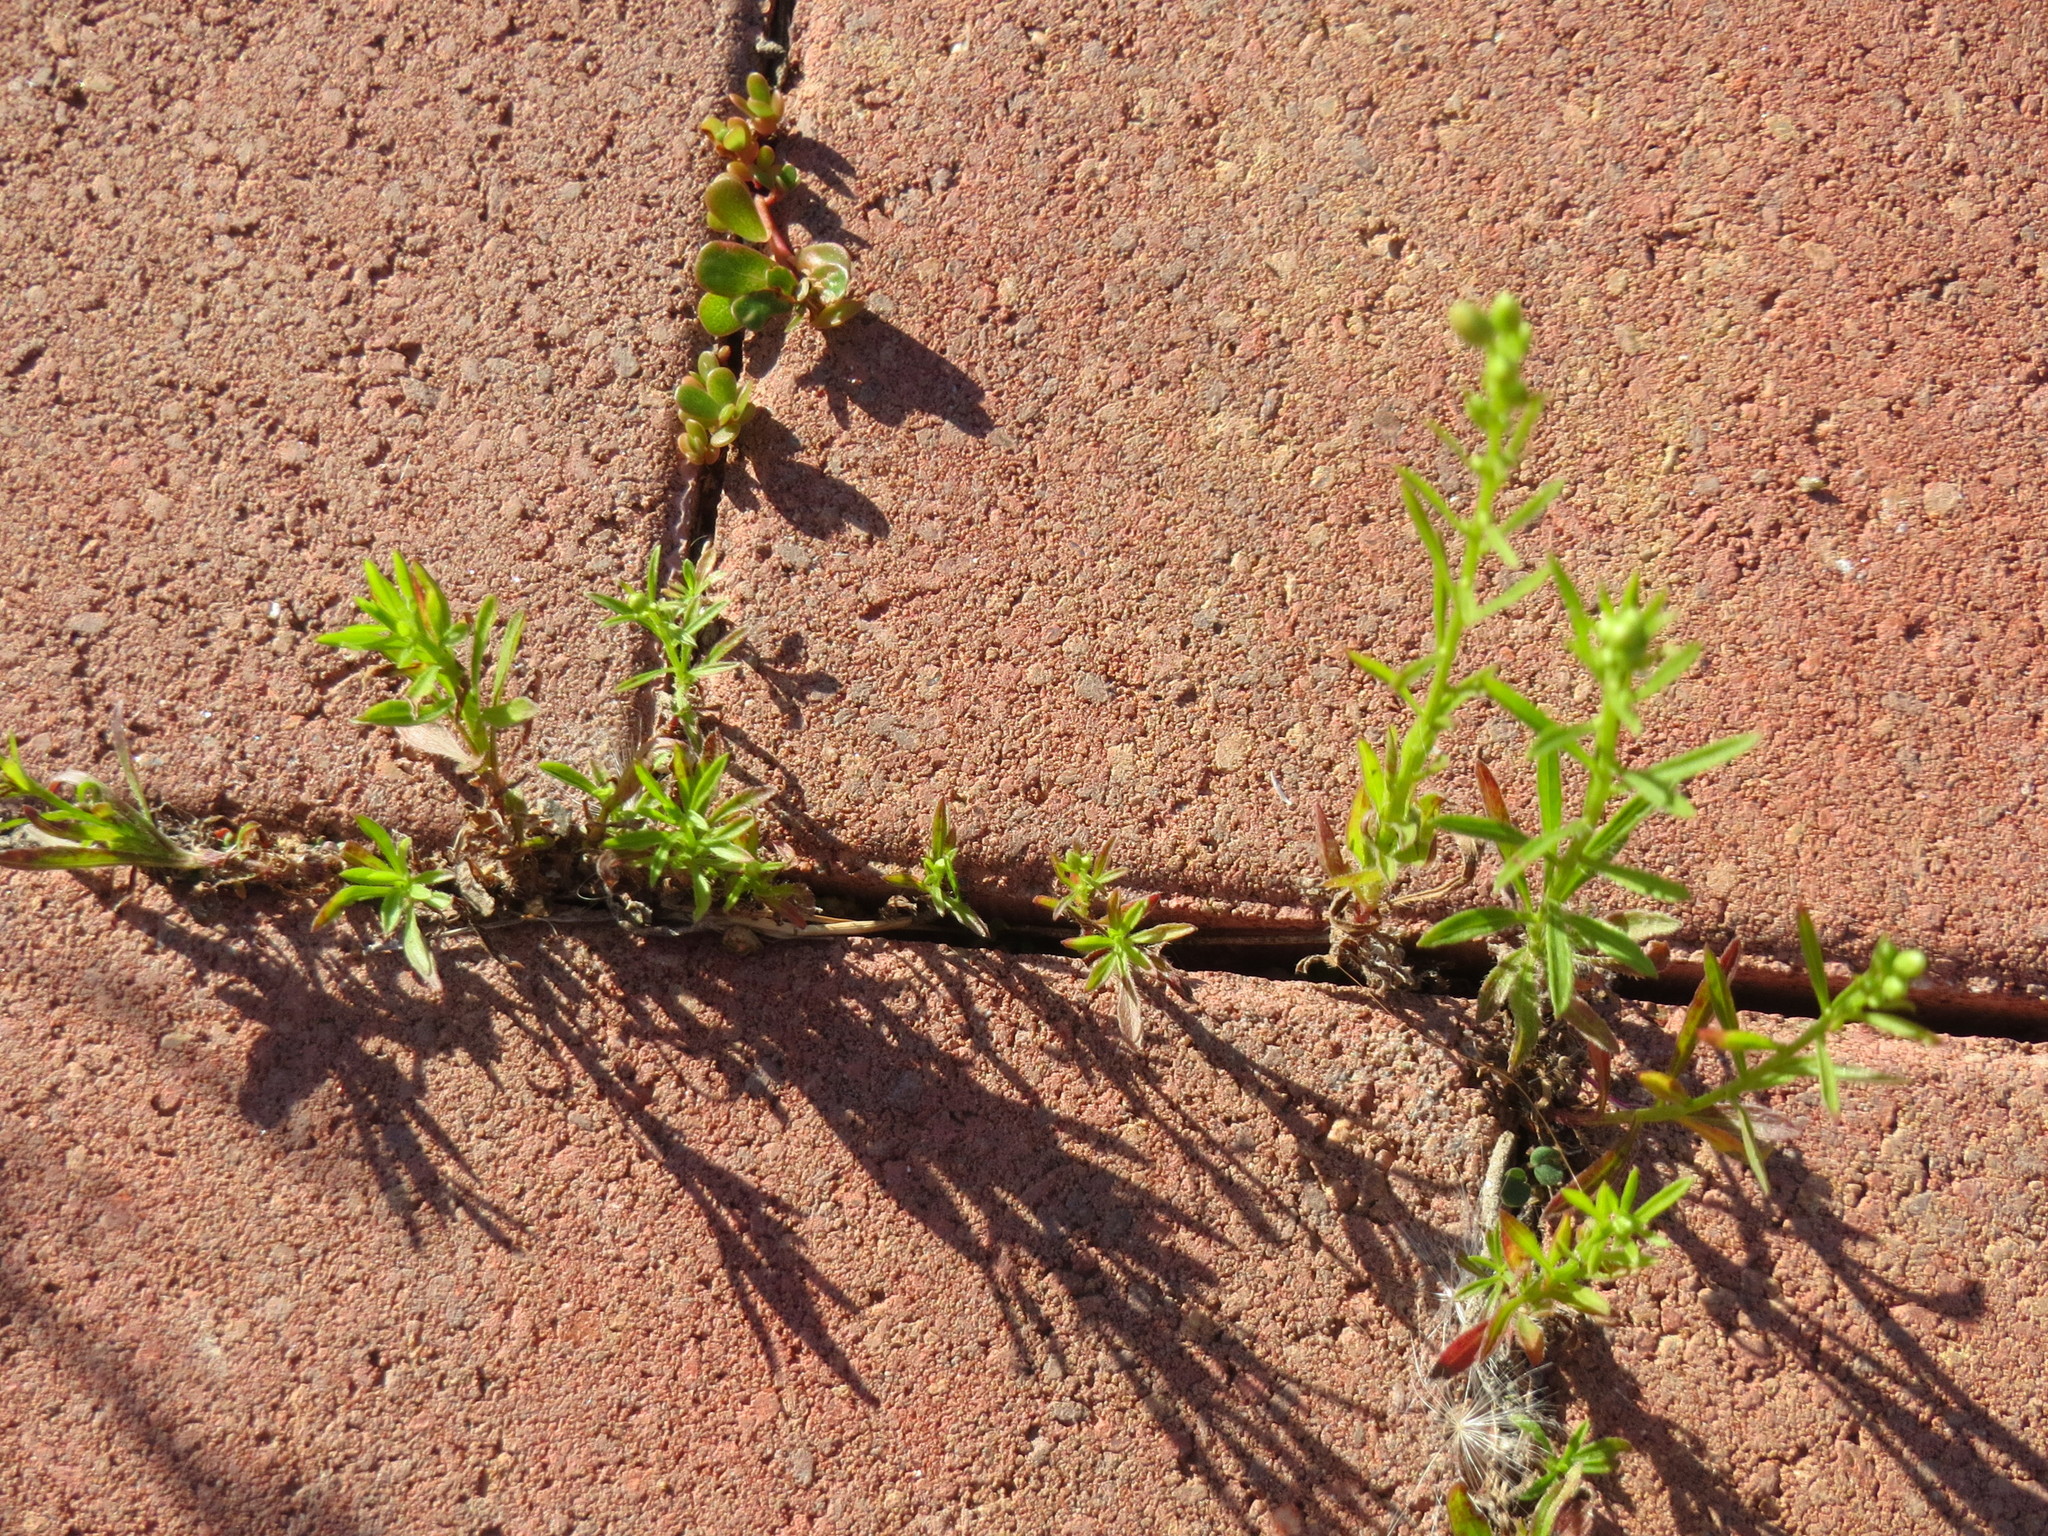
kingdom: Plantae
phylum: Tracheophyta
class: Magnoliopsida
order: Asterales
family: Asteraceae
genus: Erigeron
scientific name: Erigeron canadensis
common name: Canadian fleabane
